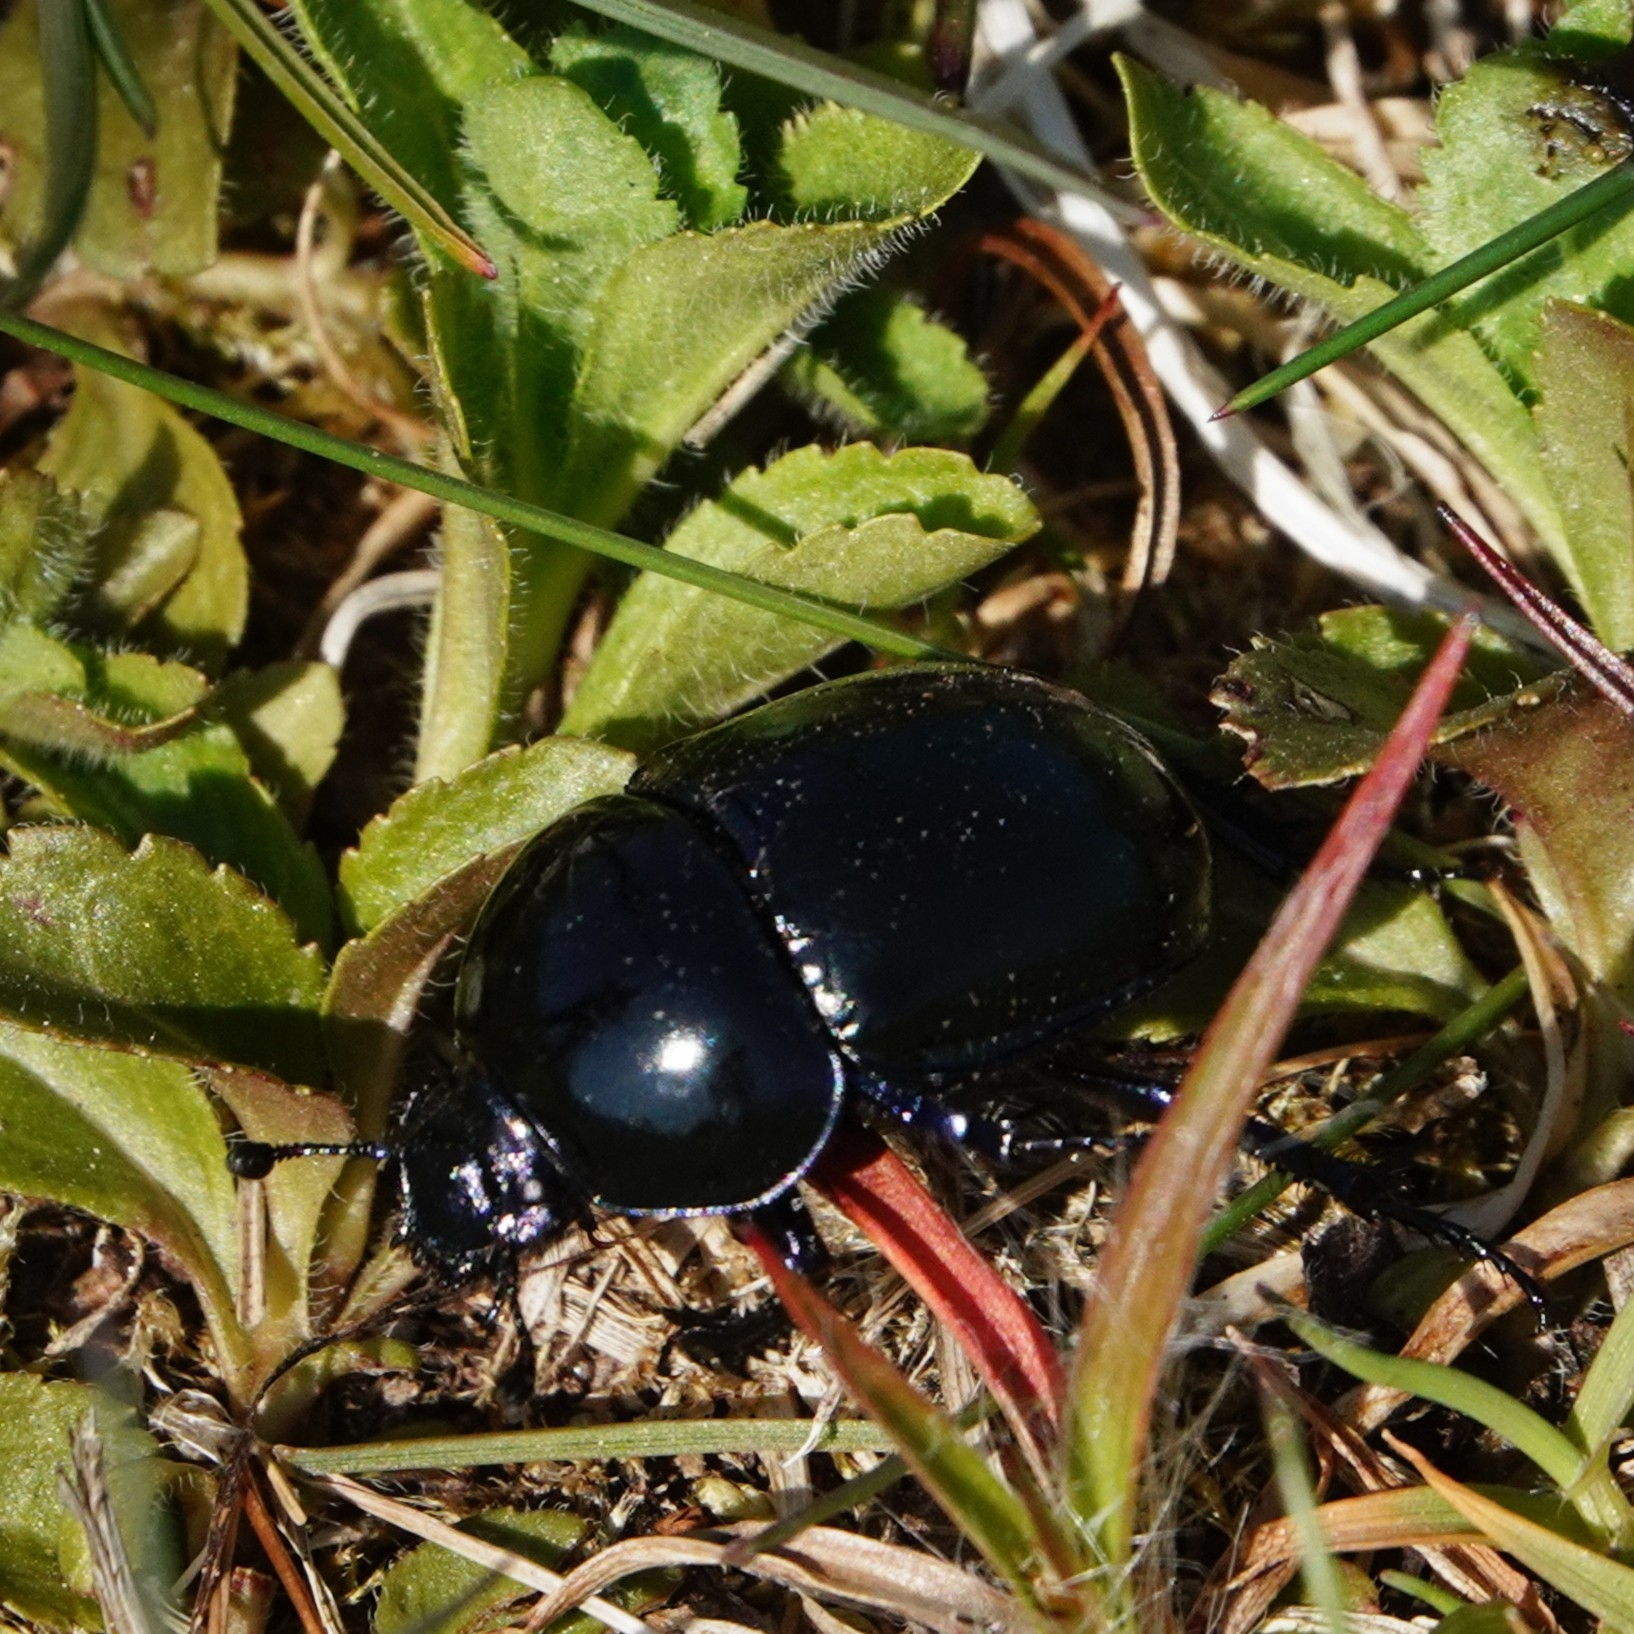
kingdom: Animalia
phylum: Arthropoda
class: Insecta
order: Coleoptera
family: Geotrupidae
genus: Trypocopris
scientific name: Trypocopris vernalis
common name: Spring dumbledor
